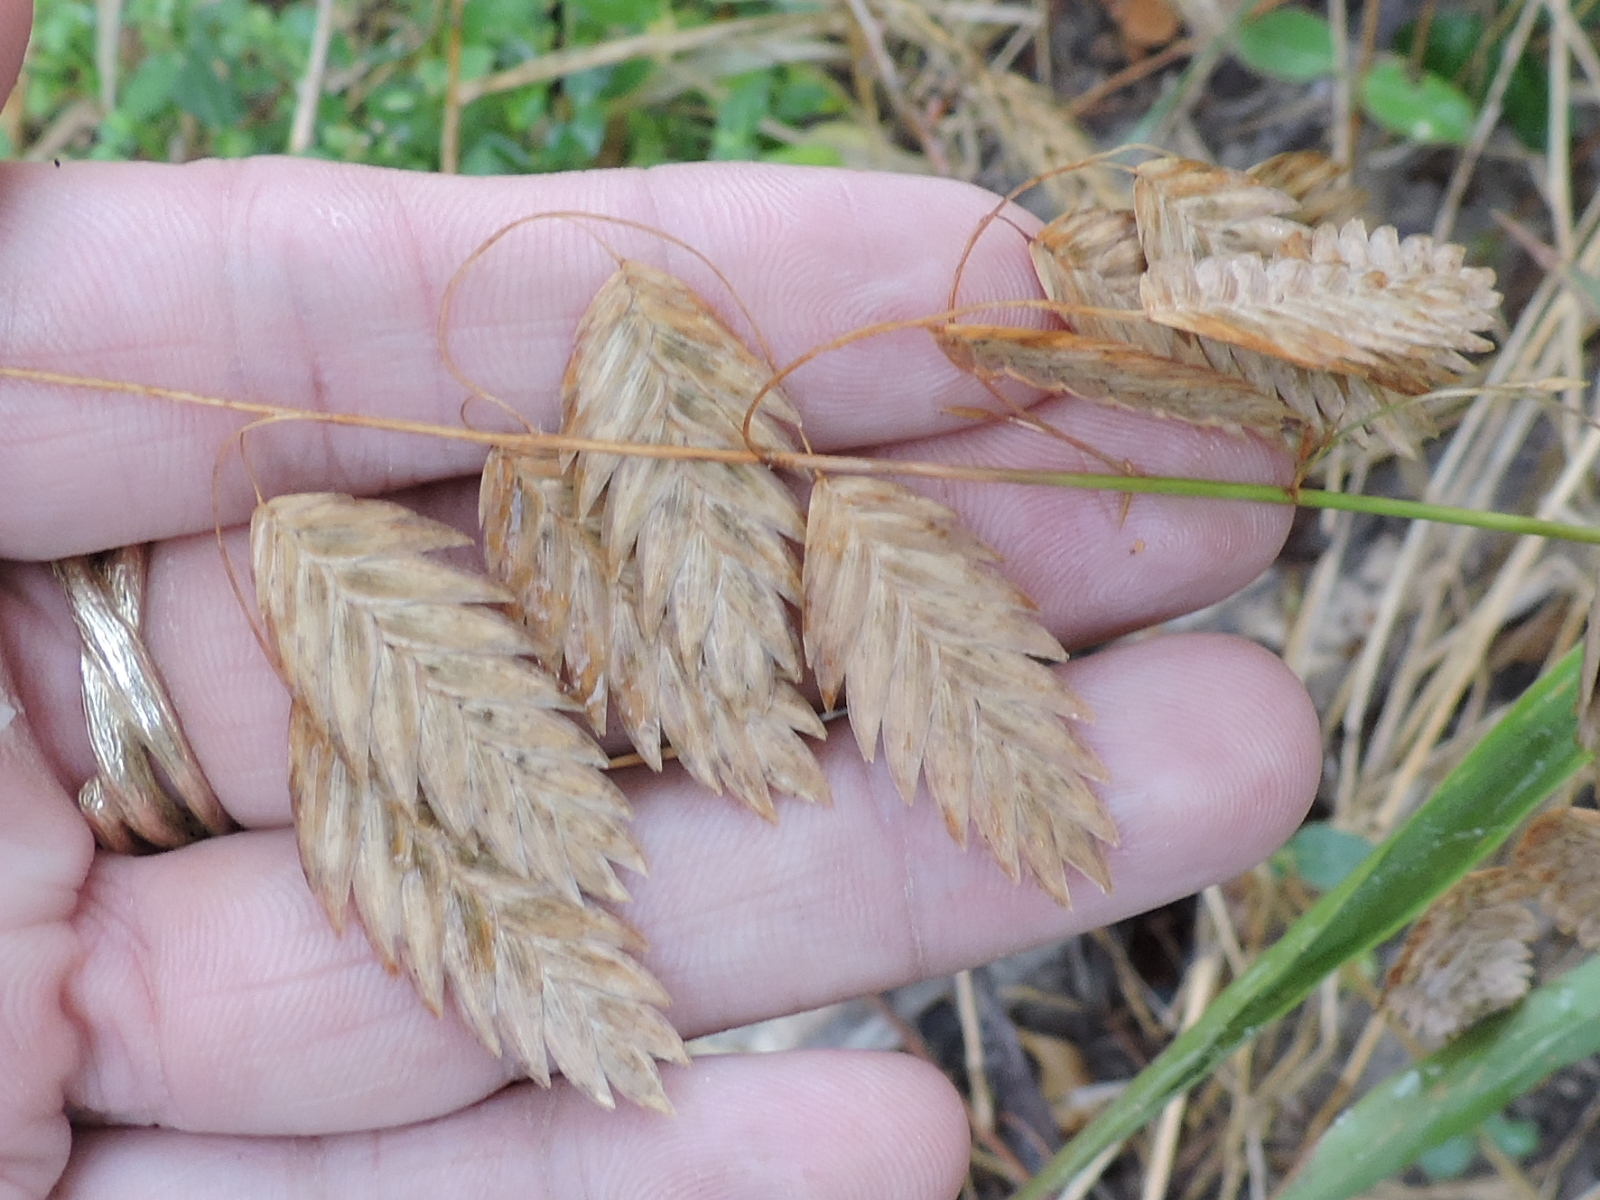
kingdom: Plantae
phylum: Tracheophyta
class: Liliopsida
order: Poales
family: Poaceae
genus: Chasmanthium
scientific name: Chasmanthium latifolium
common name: Broad-leaved chasmanthium
